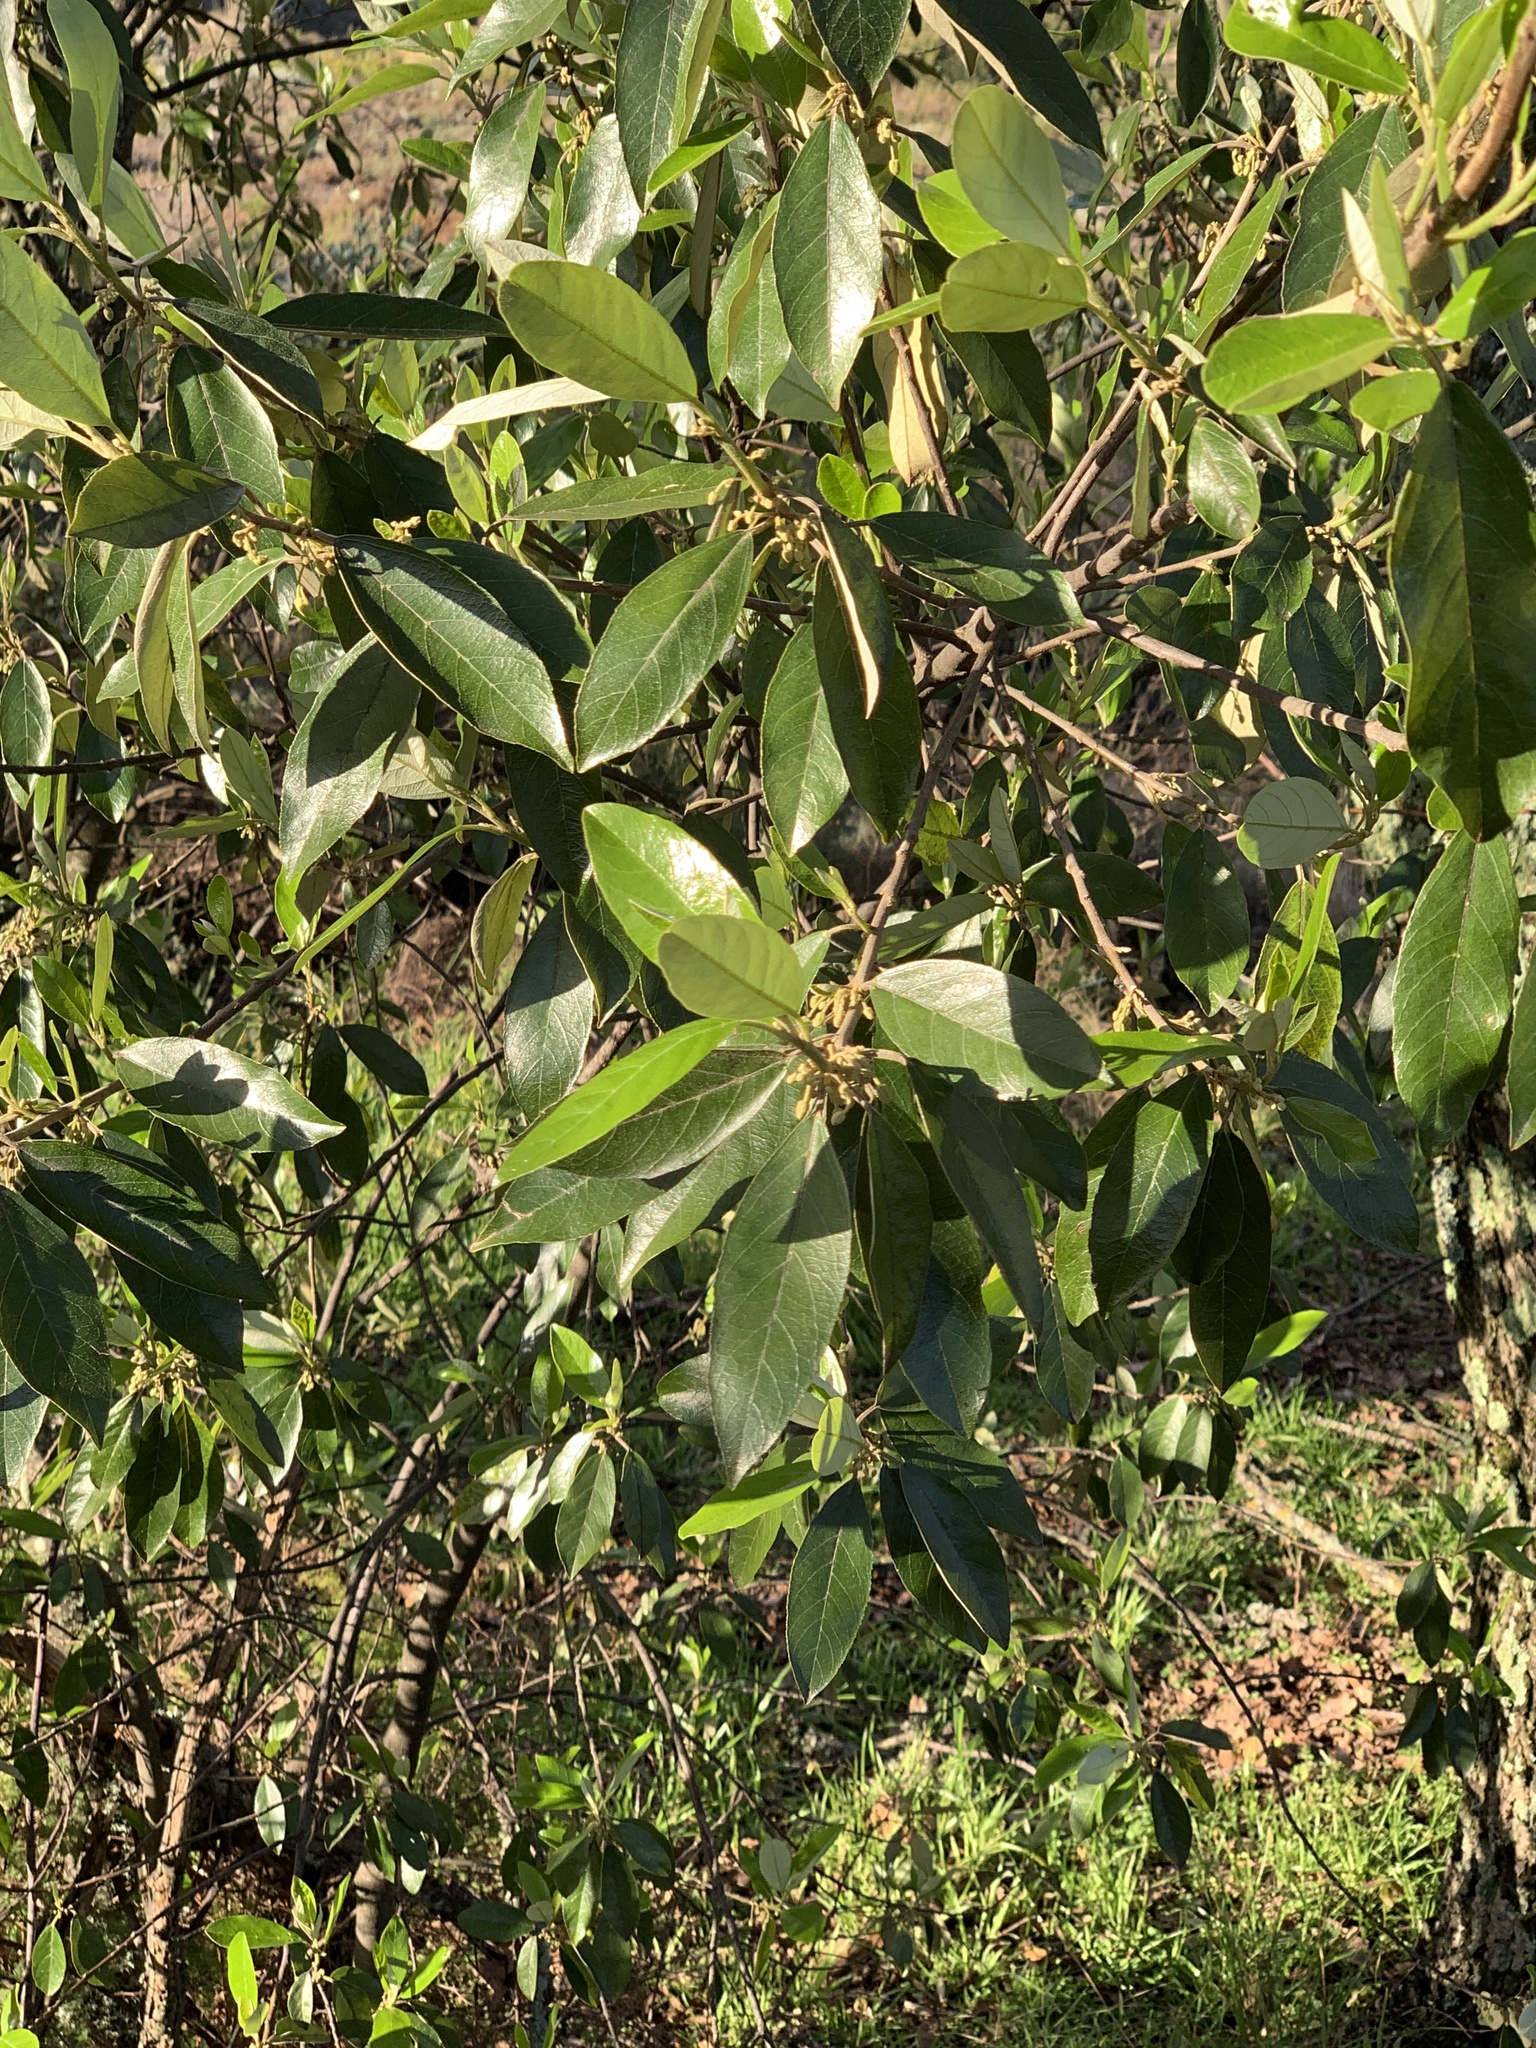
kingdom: Plantae
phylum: Tracheophyta
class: Magnoliopsida
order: Malpighiales
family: Achariaceae
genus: Kiggelaria
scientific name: Kiggelaria africana
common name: Wild peach
